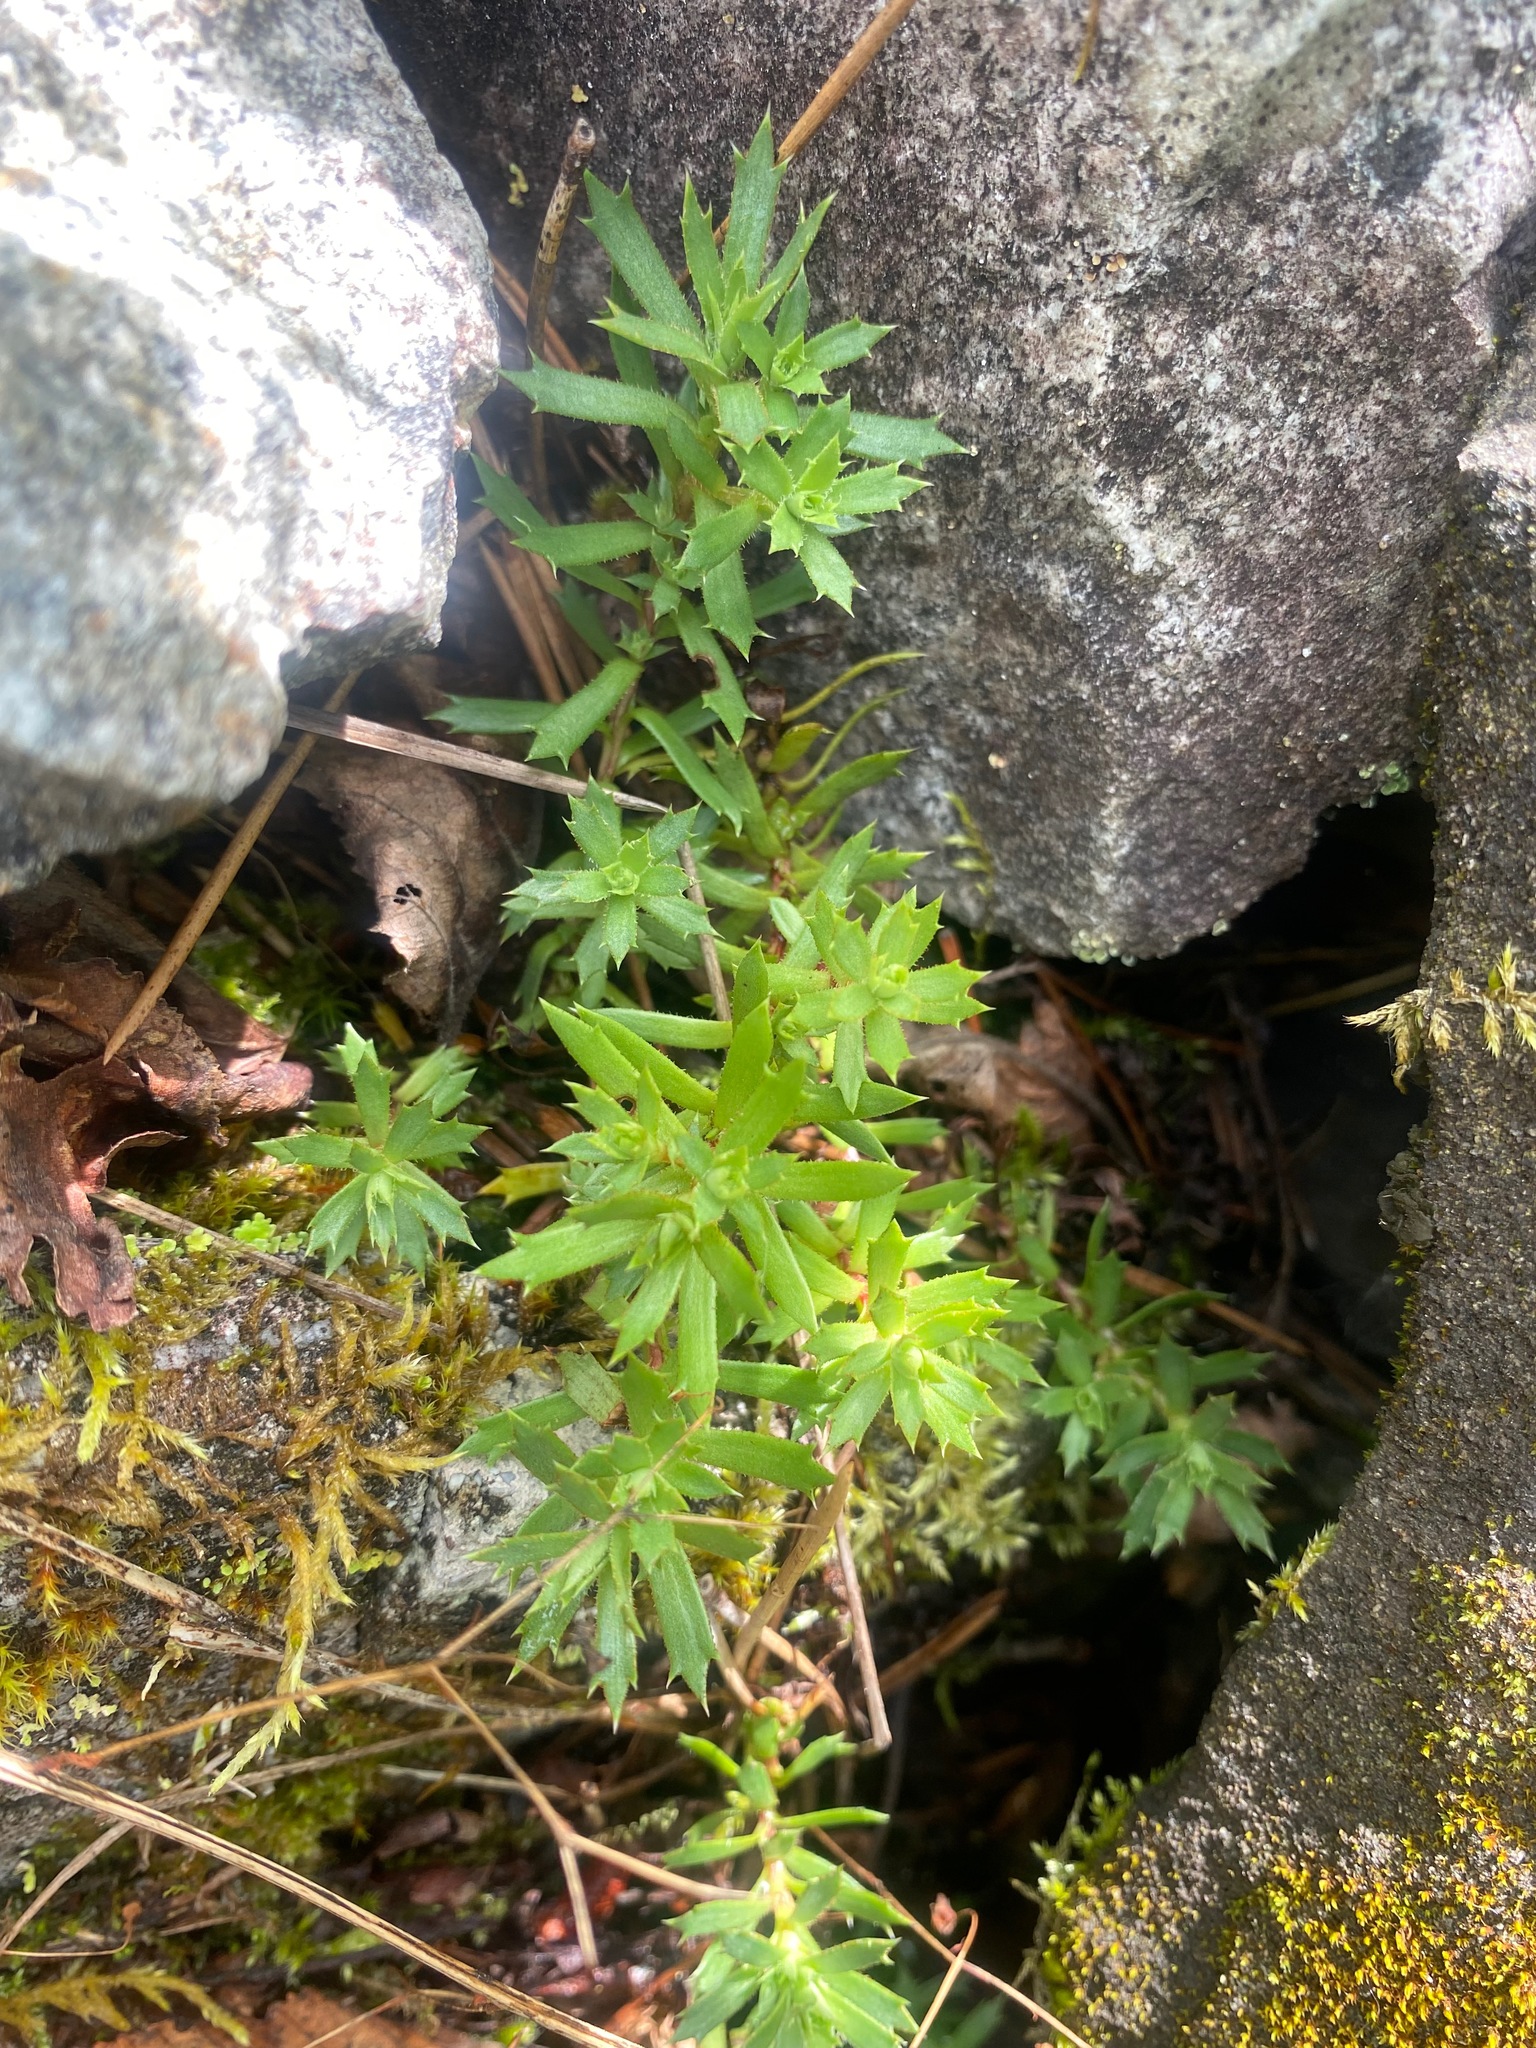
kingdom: Plantae
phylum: Tracheophyta
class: Magnoliopsida
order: Saxifragales
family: Saxifragaceae
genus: Saxifraga
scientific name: Saxifraga tricuspidata
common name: Prickly saxifrage
